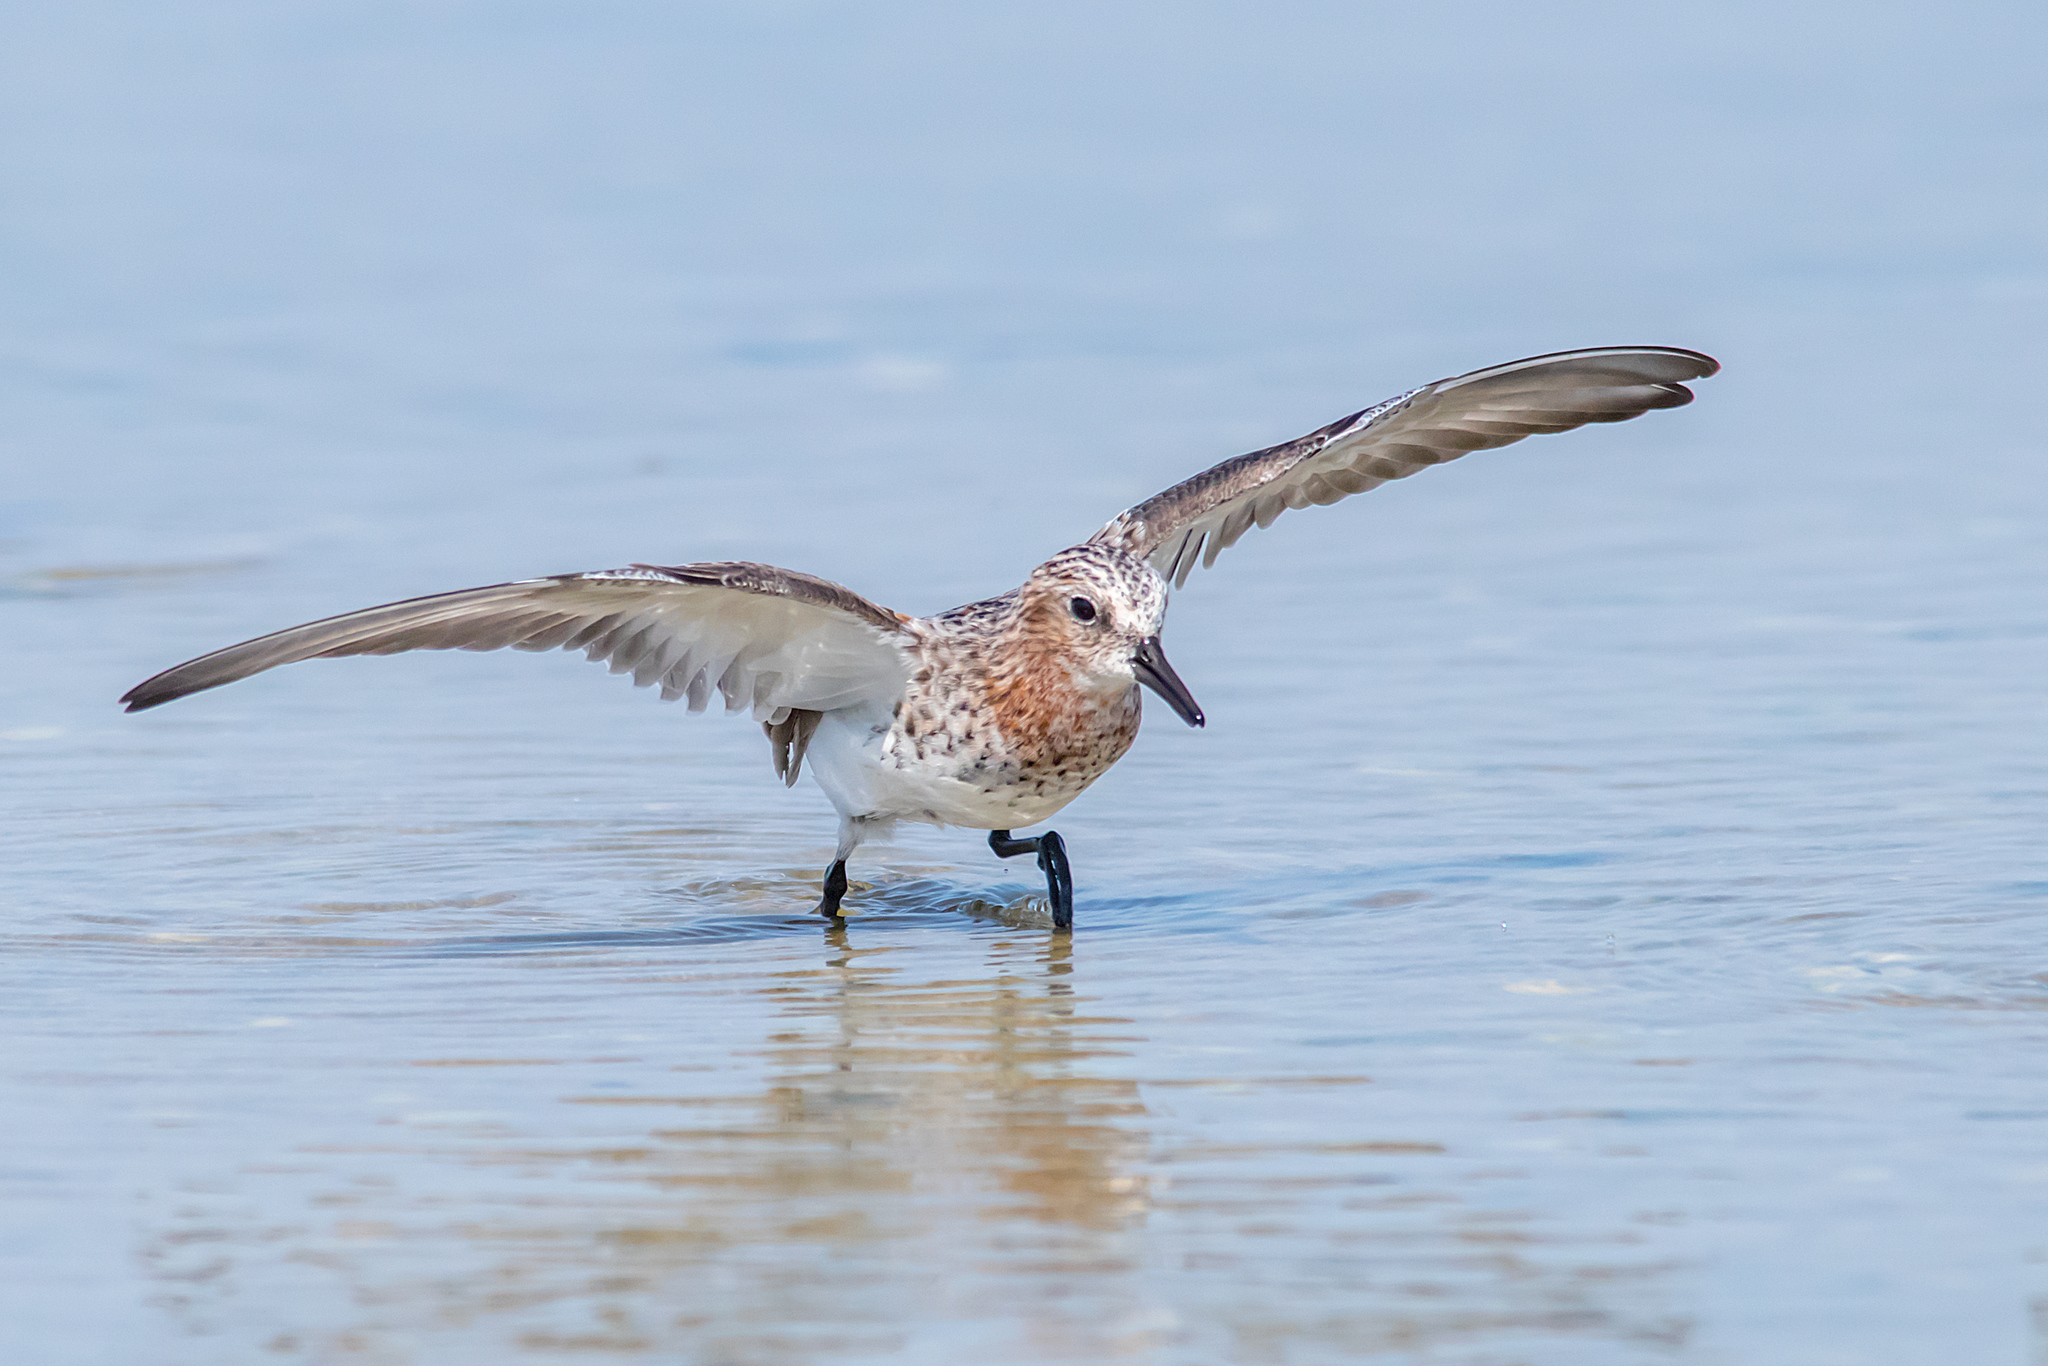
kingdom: Animalia
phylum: Chordata
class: Aves
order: Charadriiformes
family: Scolopacidae
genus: Calidris
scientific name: Calidris ruficollis
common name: Red-necked stint
